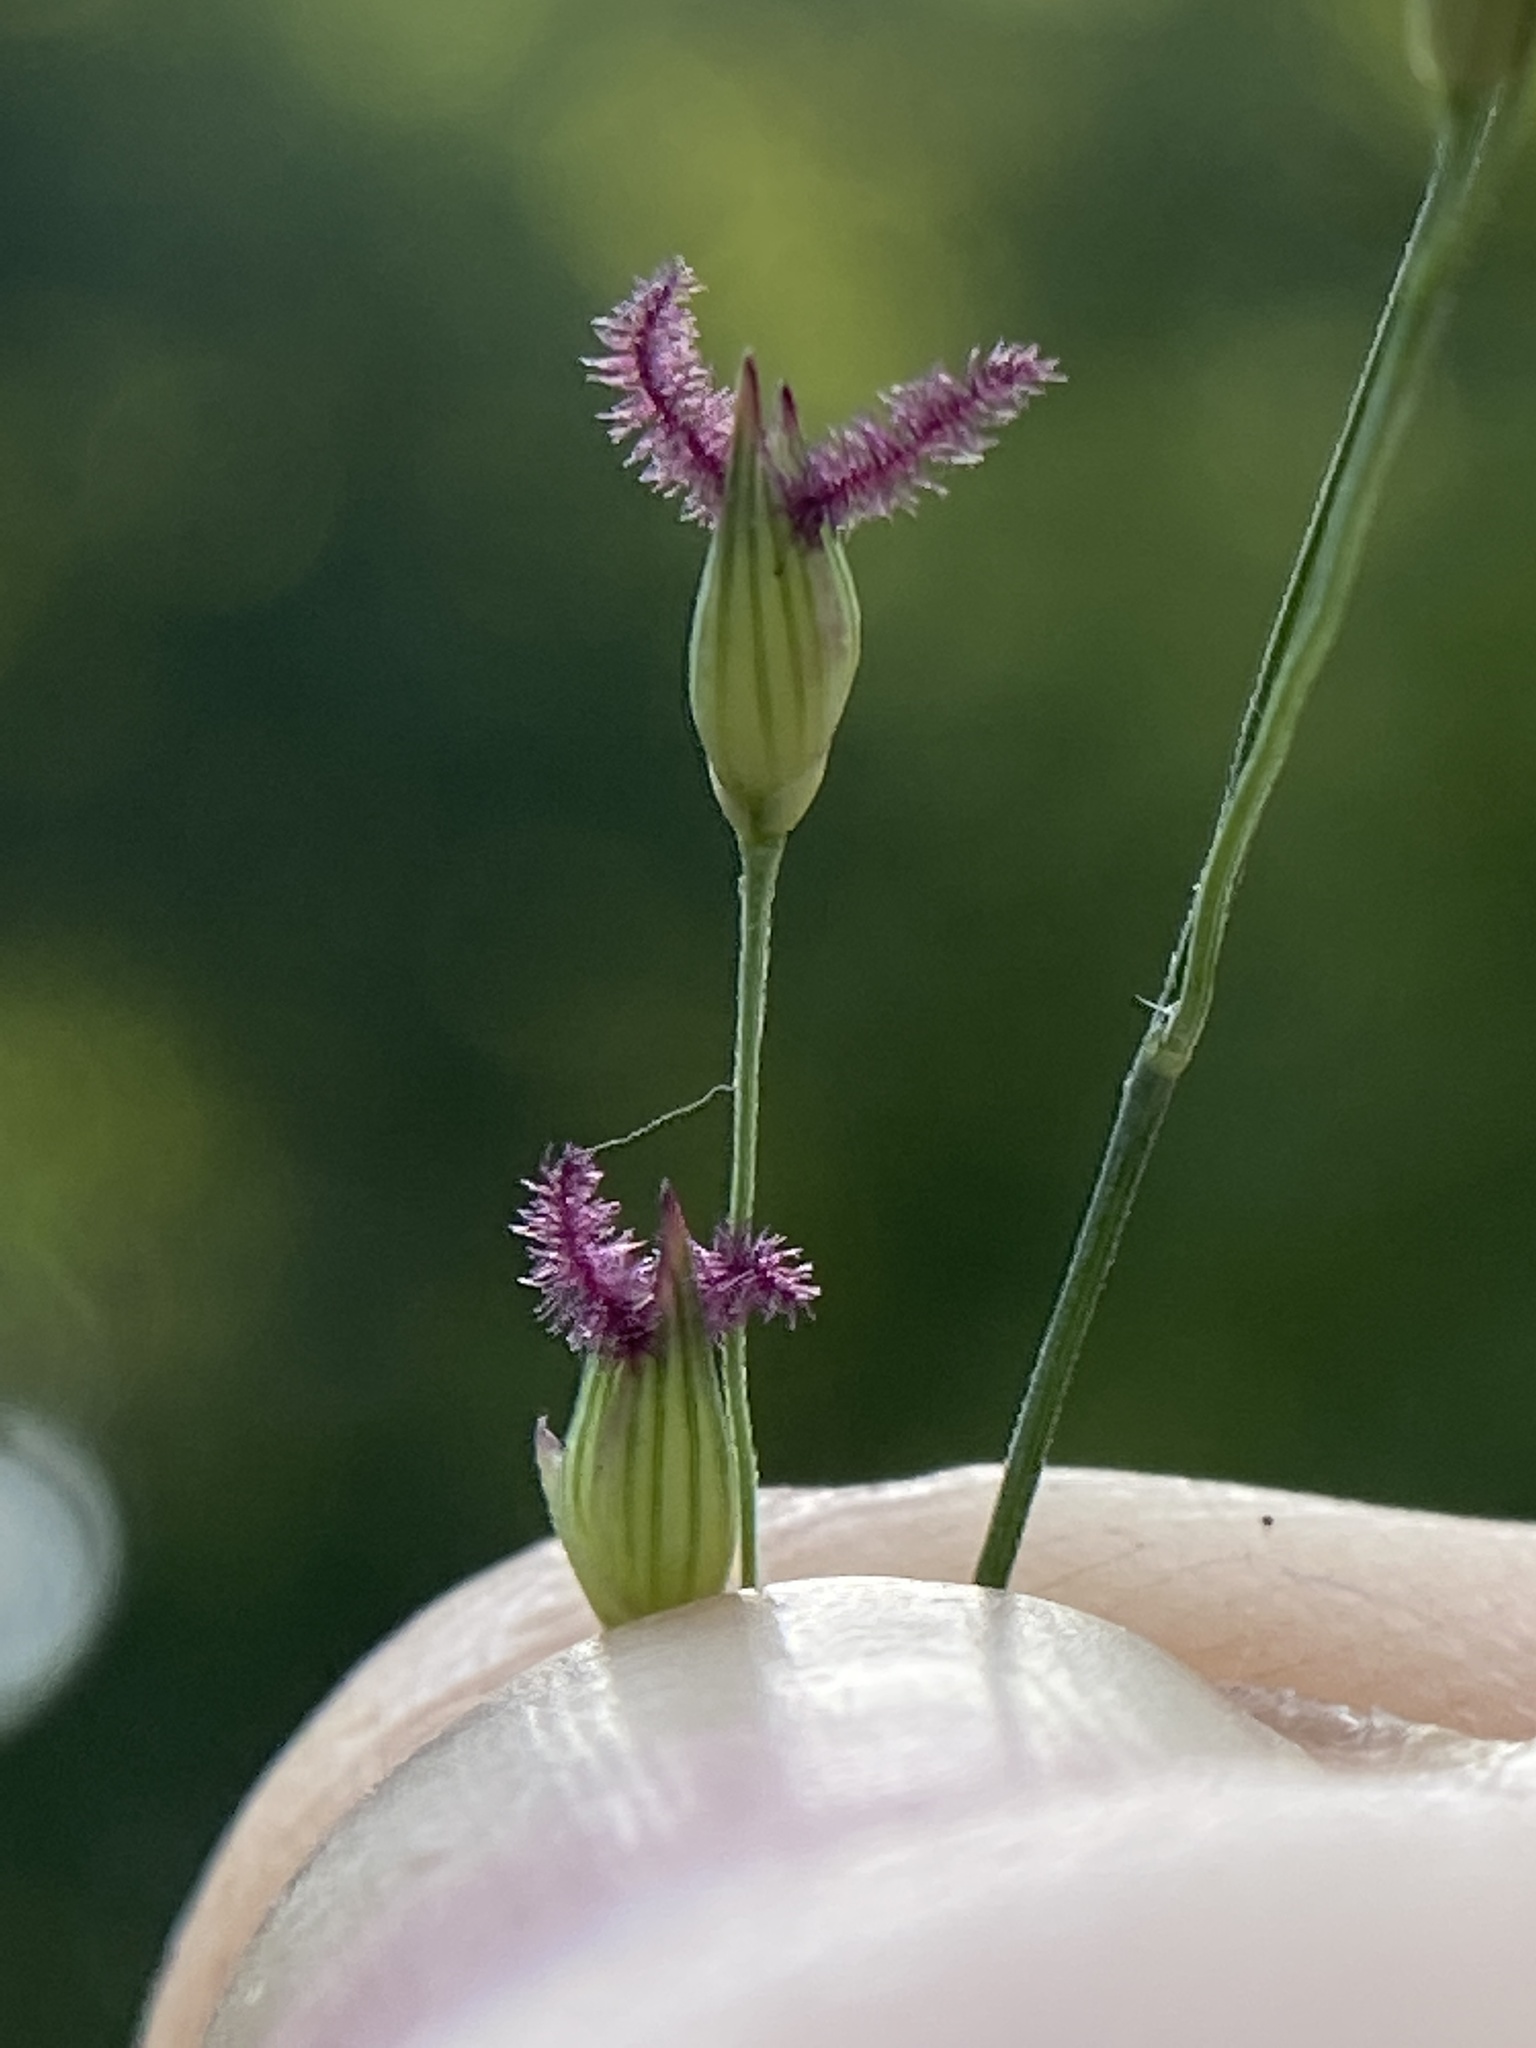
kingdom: Plantae
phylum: Tracheophyta
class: Liliopsida
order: Poales
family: Poaceae
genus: Panicum
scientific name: Panicum virgatum
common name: Switchgrass
